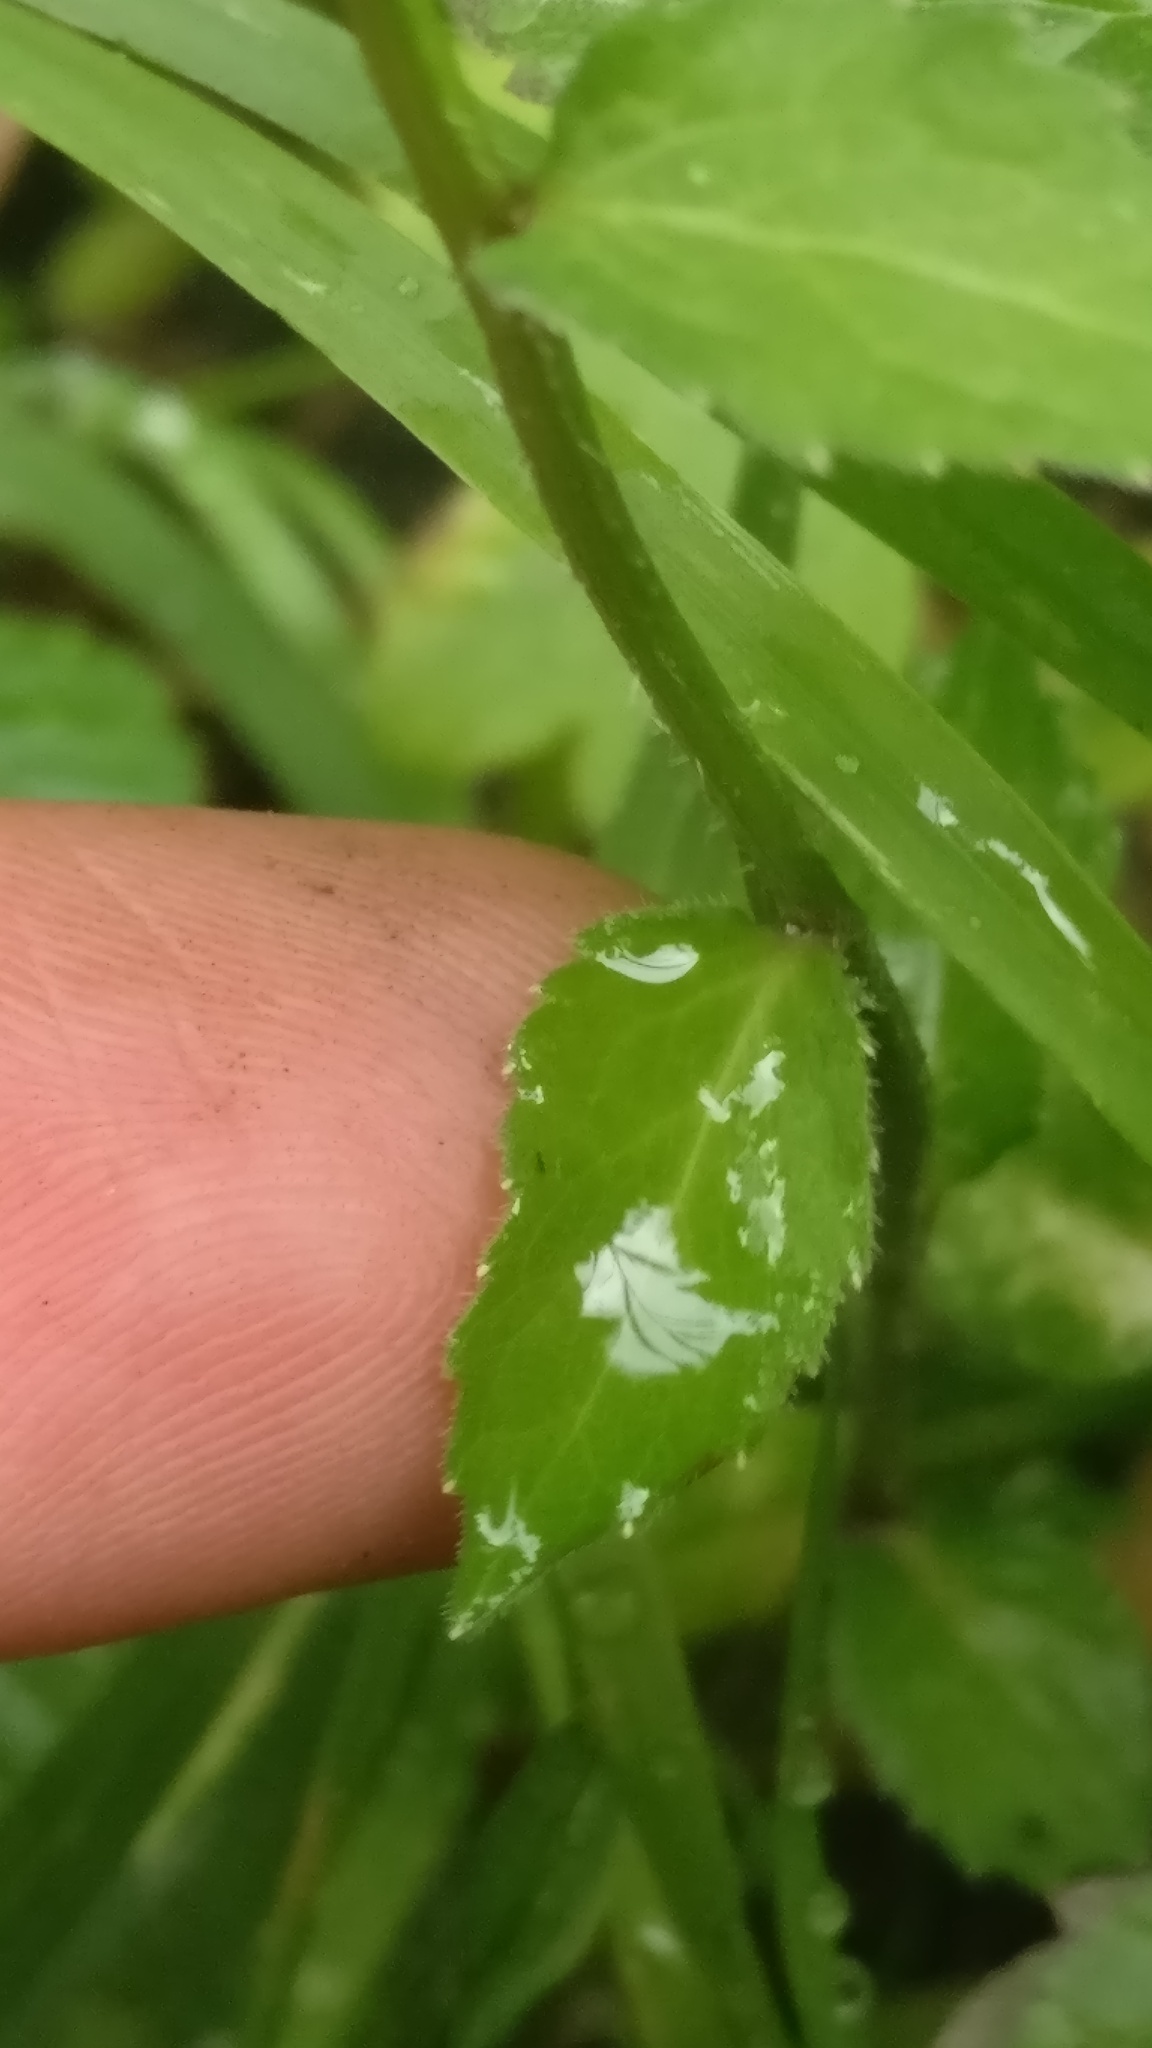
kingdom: Plantae
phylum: Tracheophyta
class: Magnoliopsida
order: Asterales
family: Campanulaceae
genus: Campanula
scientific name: Campanula rhomboidalis
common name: Broad-leaved harebell
